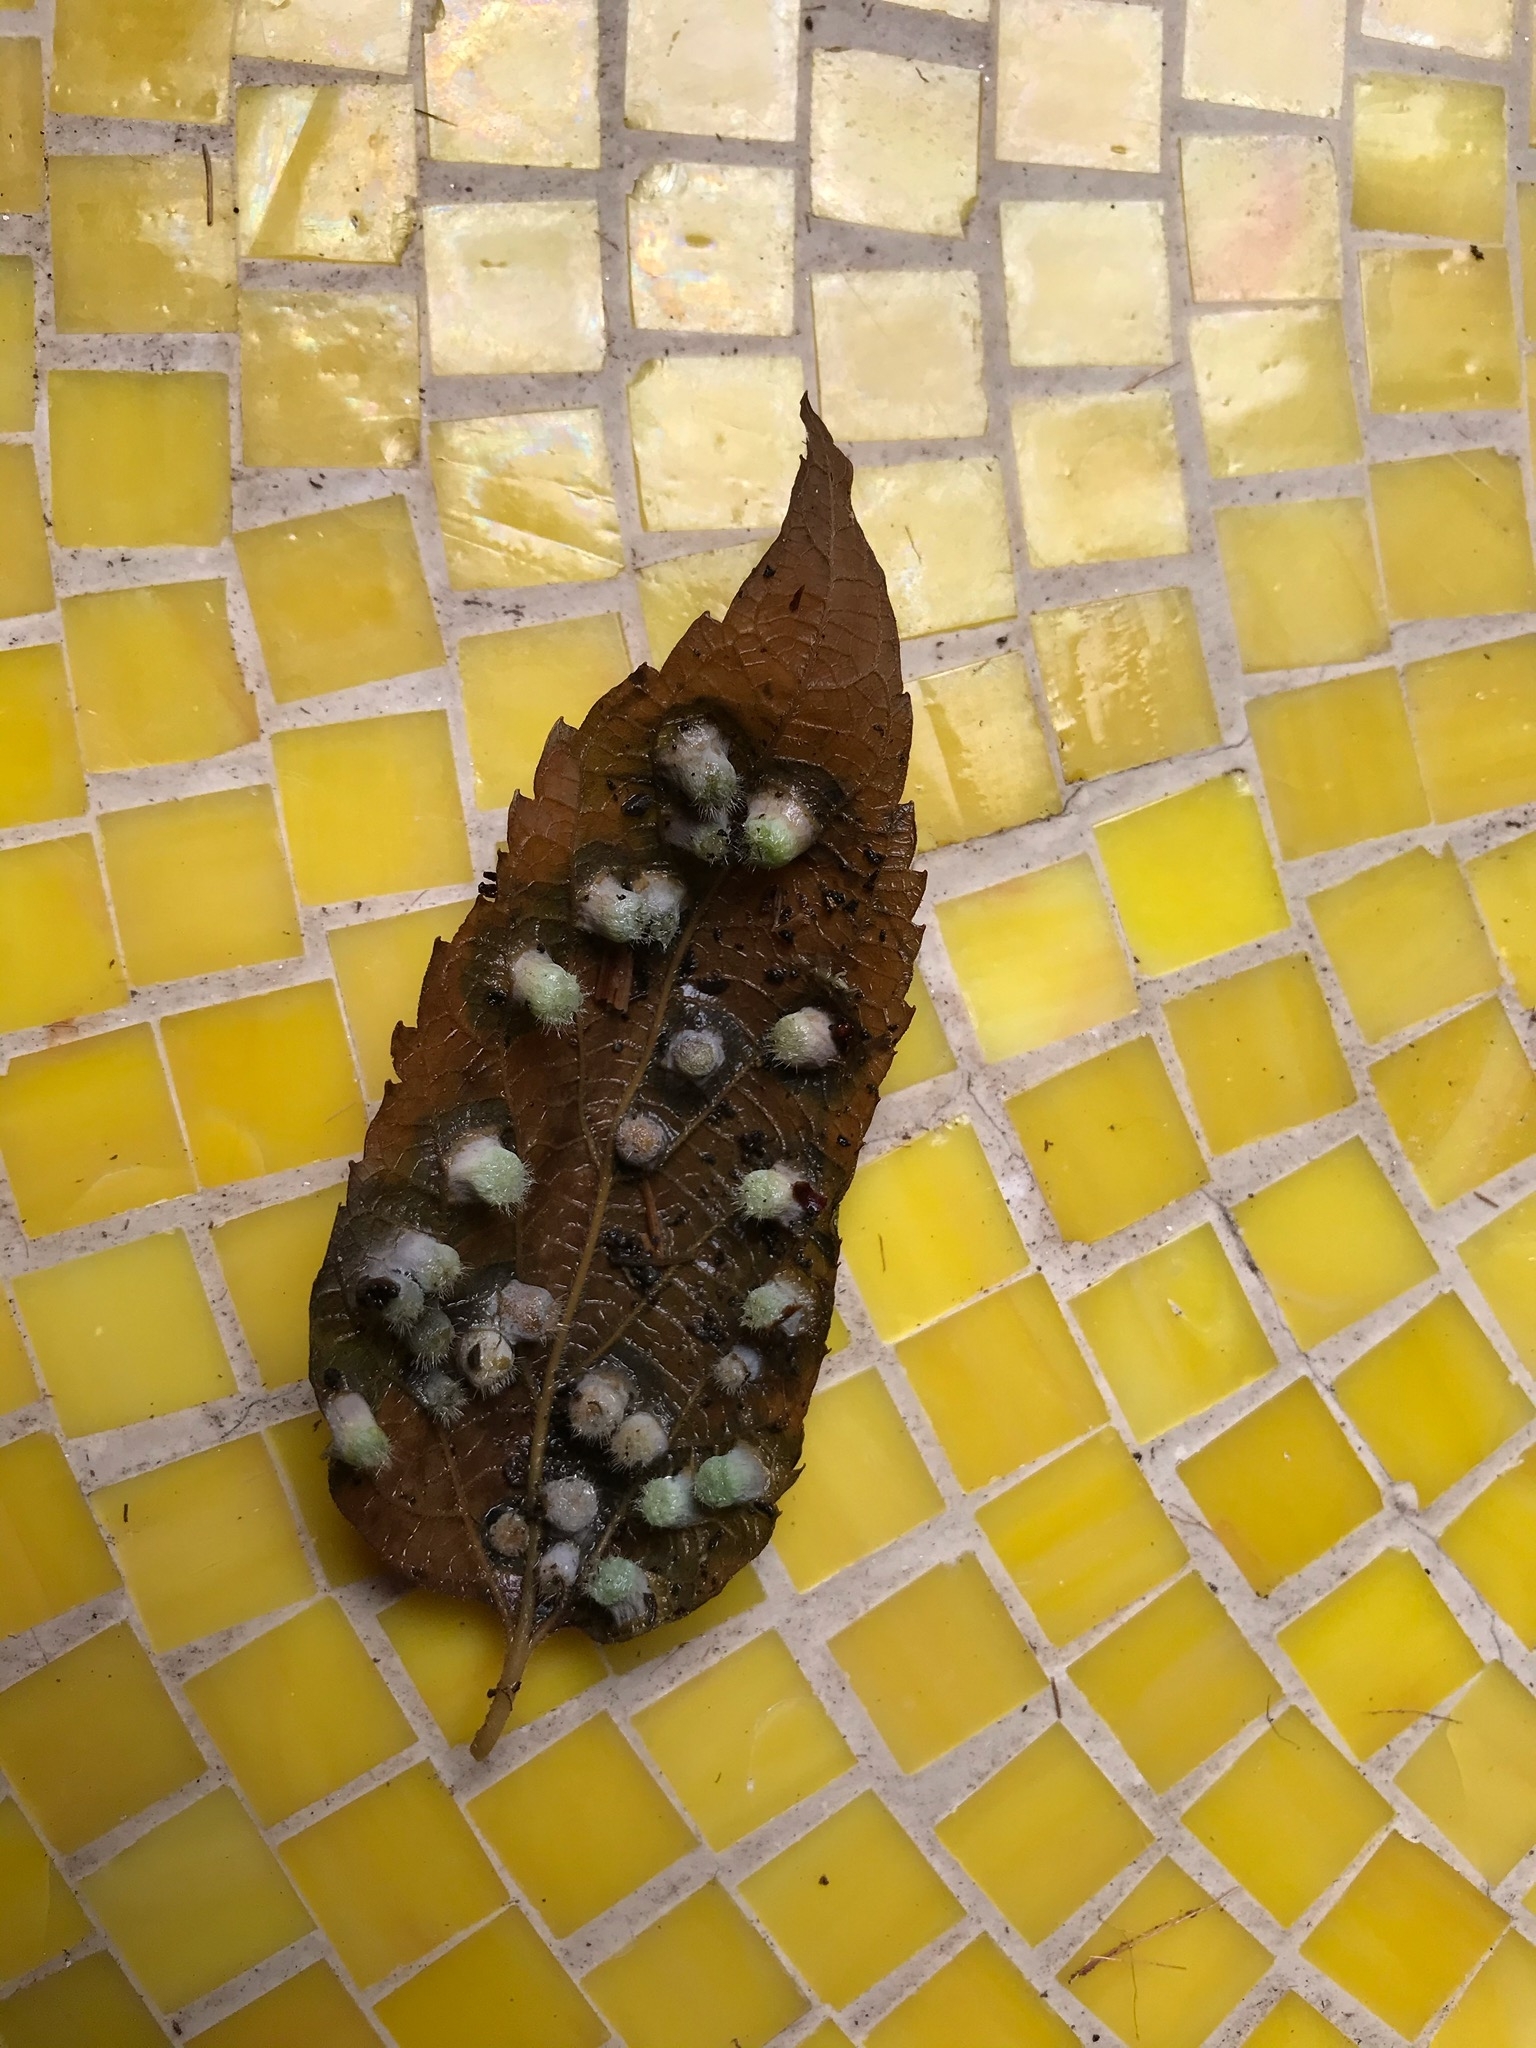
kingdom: Animalia
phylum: Arthropoda
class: Insecta
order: Hemiptera
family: Aphalaridae
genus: Pachypsylla
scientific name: Pachypsylla celtidismamma
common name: Hackberry nipplegall psyllid
